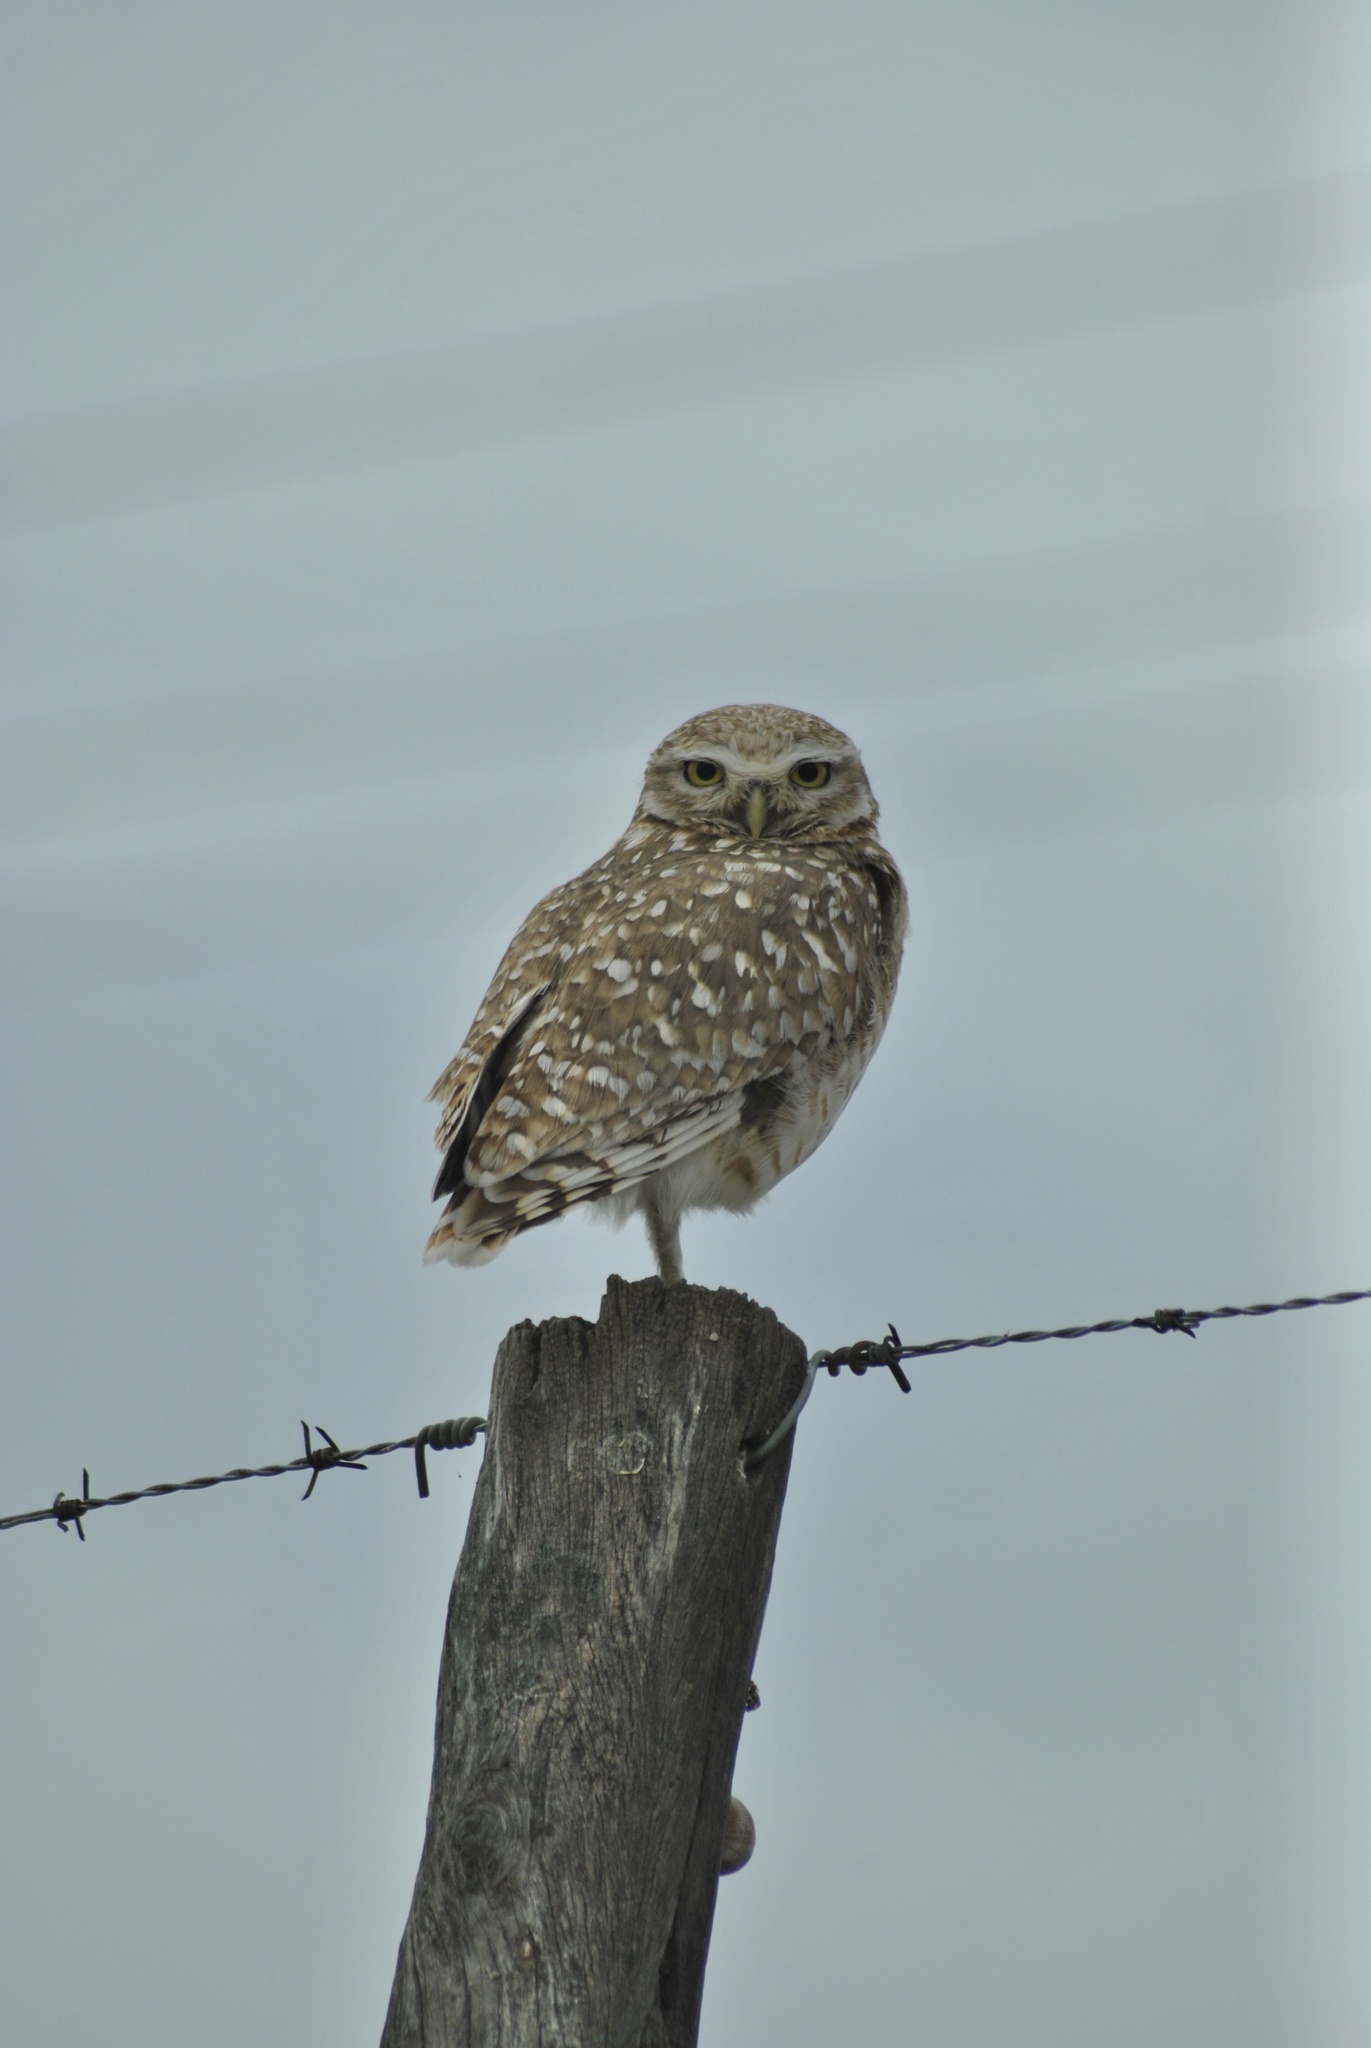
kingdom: Animalia
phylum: Chordata
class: Aves
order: Strigiformes
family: Strigidae
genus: Athene
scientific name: Athene cunicularia
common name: Burrowing owl
